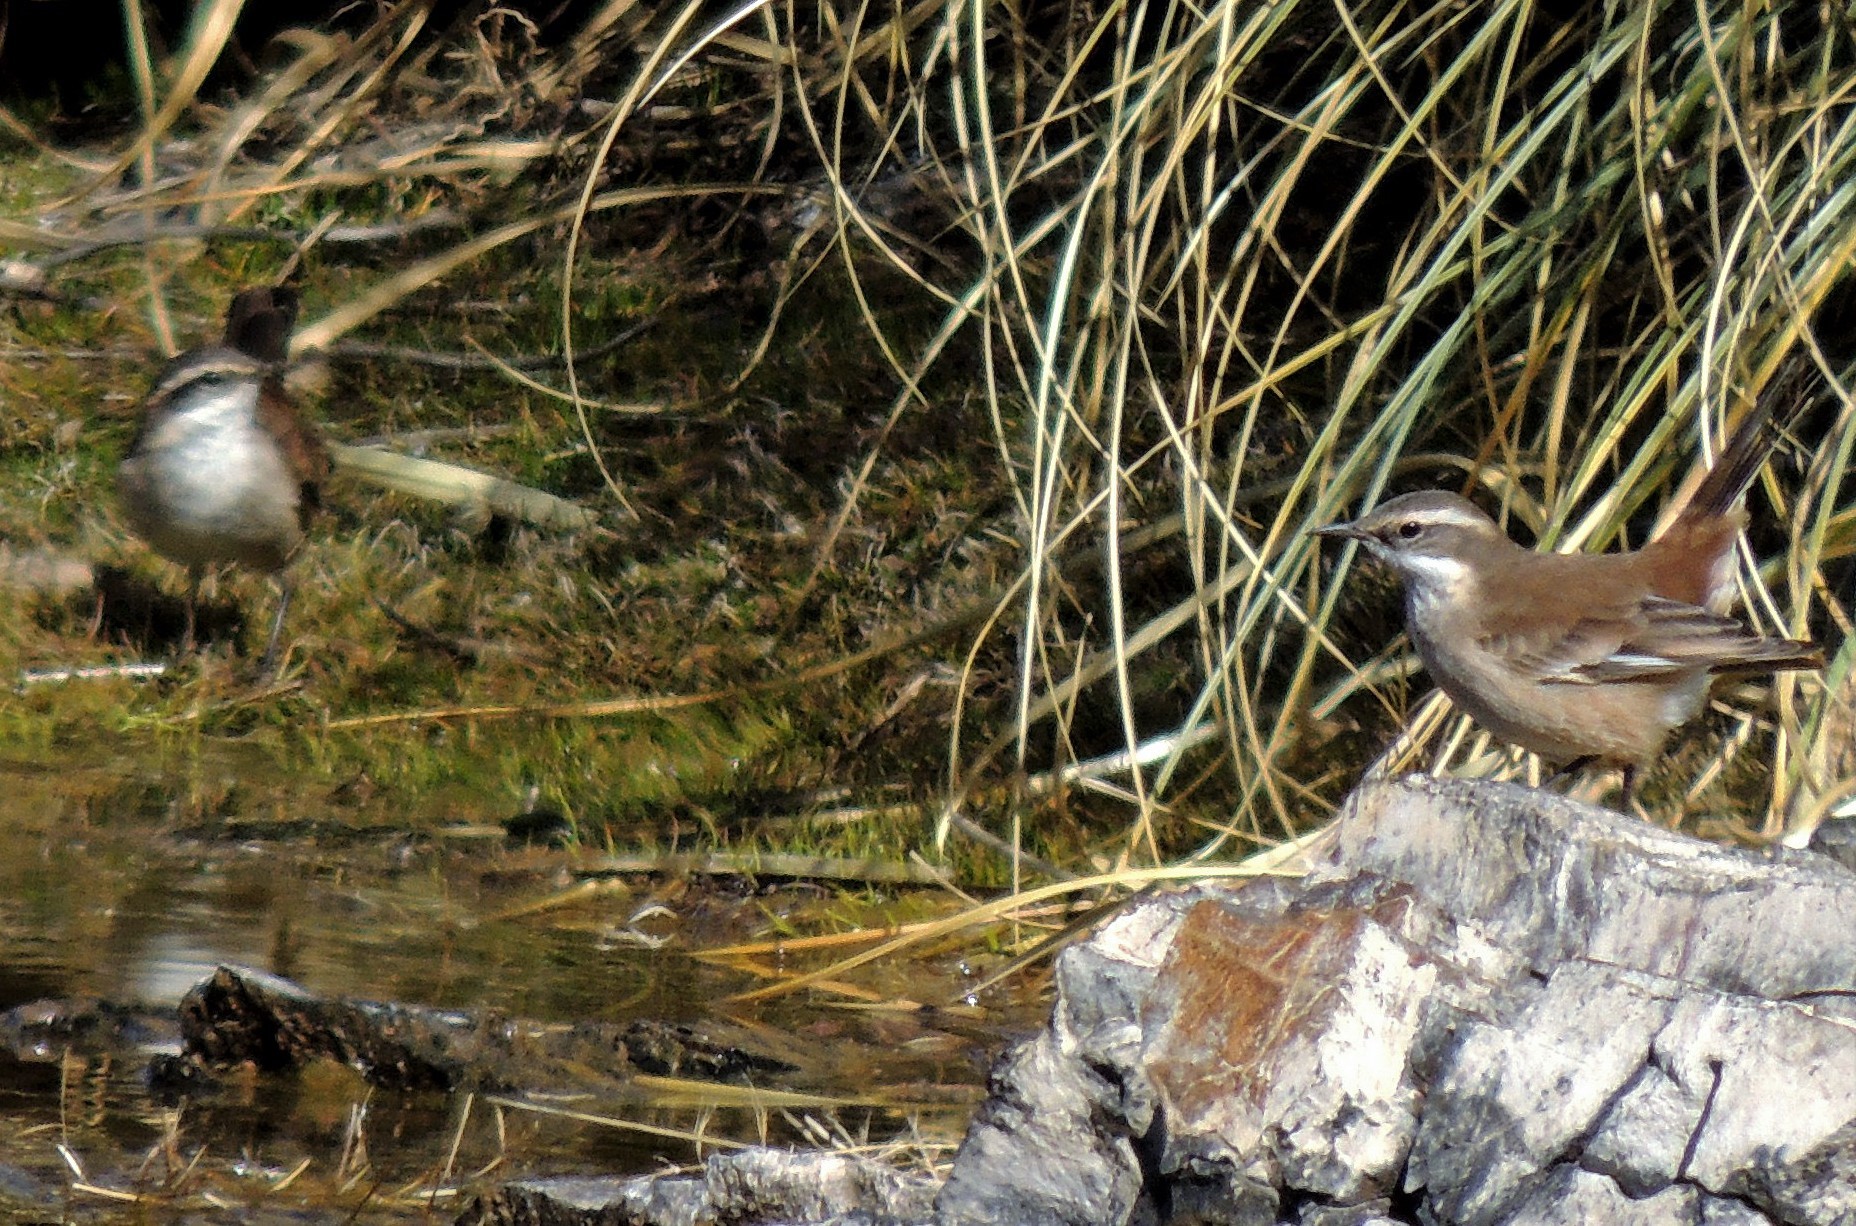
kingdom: Animalia
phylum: Chordata
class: Aves
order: Passeriformes
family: Furnariidae
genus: Cinclodes
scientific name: Cinclodes fuscus
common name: Buff-winged cinclodes
